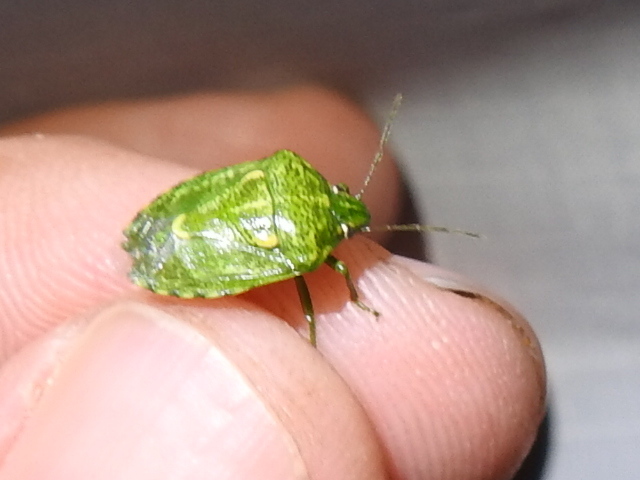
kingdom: Animalia
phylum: Arthropoda
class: Insecta
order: Hemiptera
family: Pentatomidae
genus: Banasa
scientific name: Banasa euchlora
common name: Cedar berry bug
